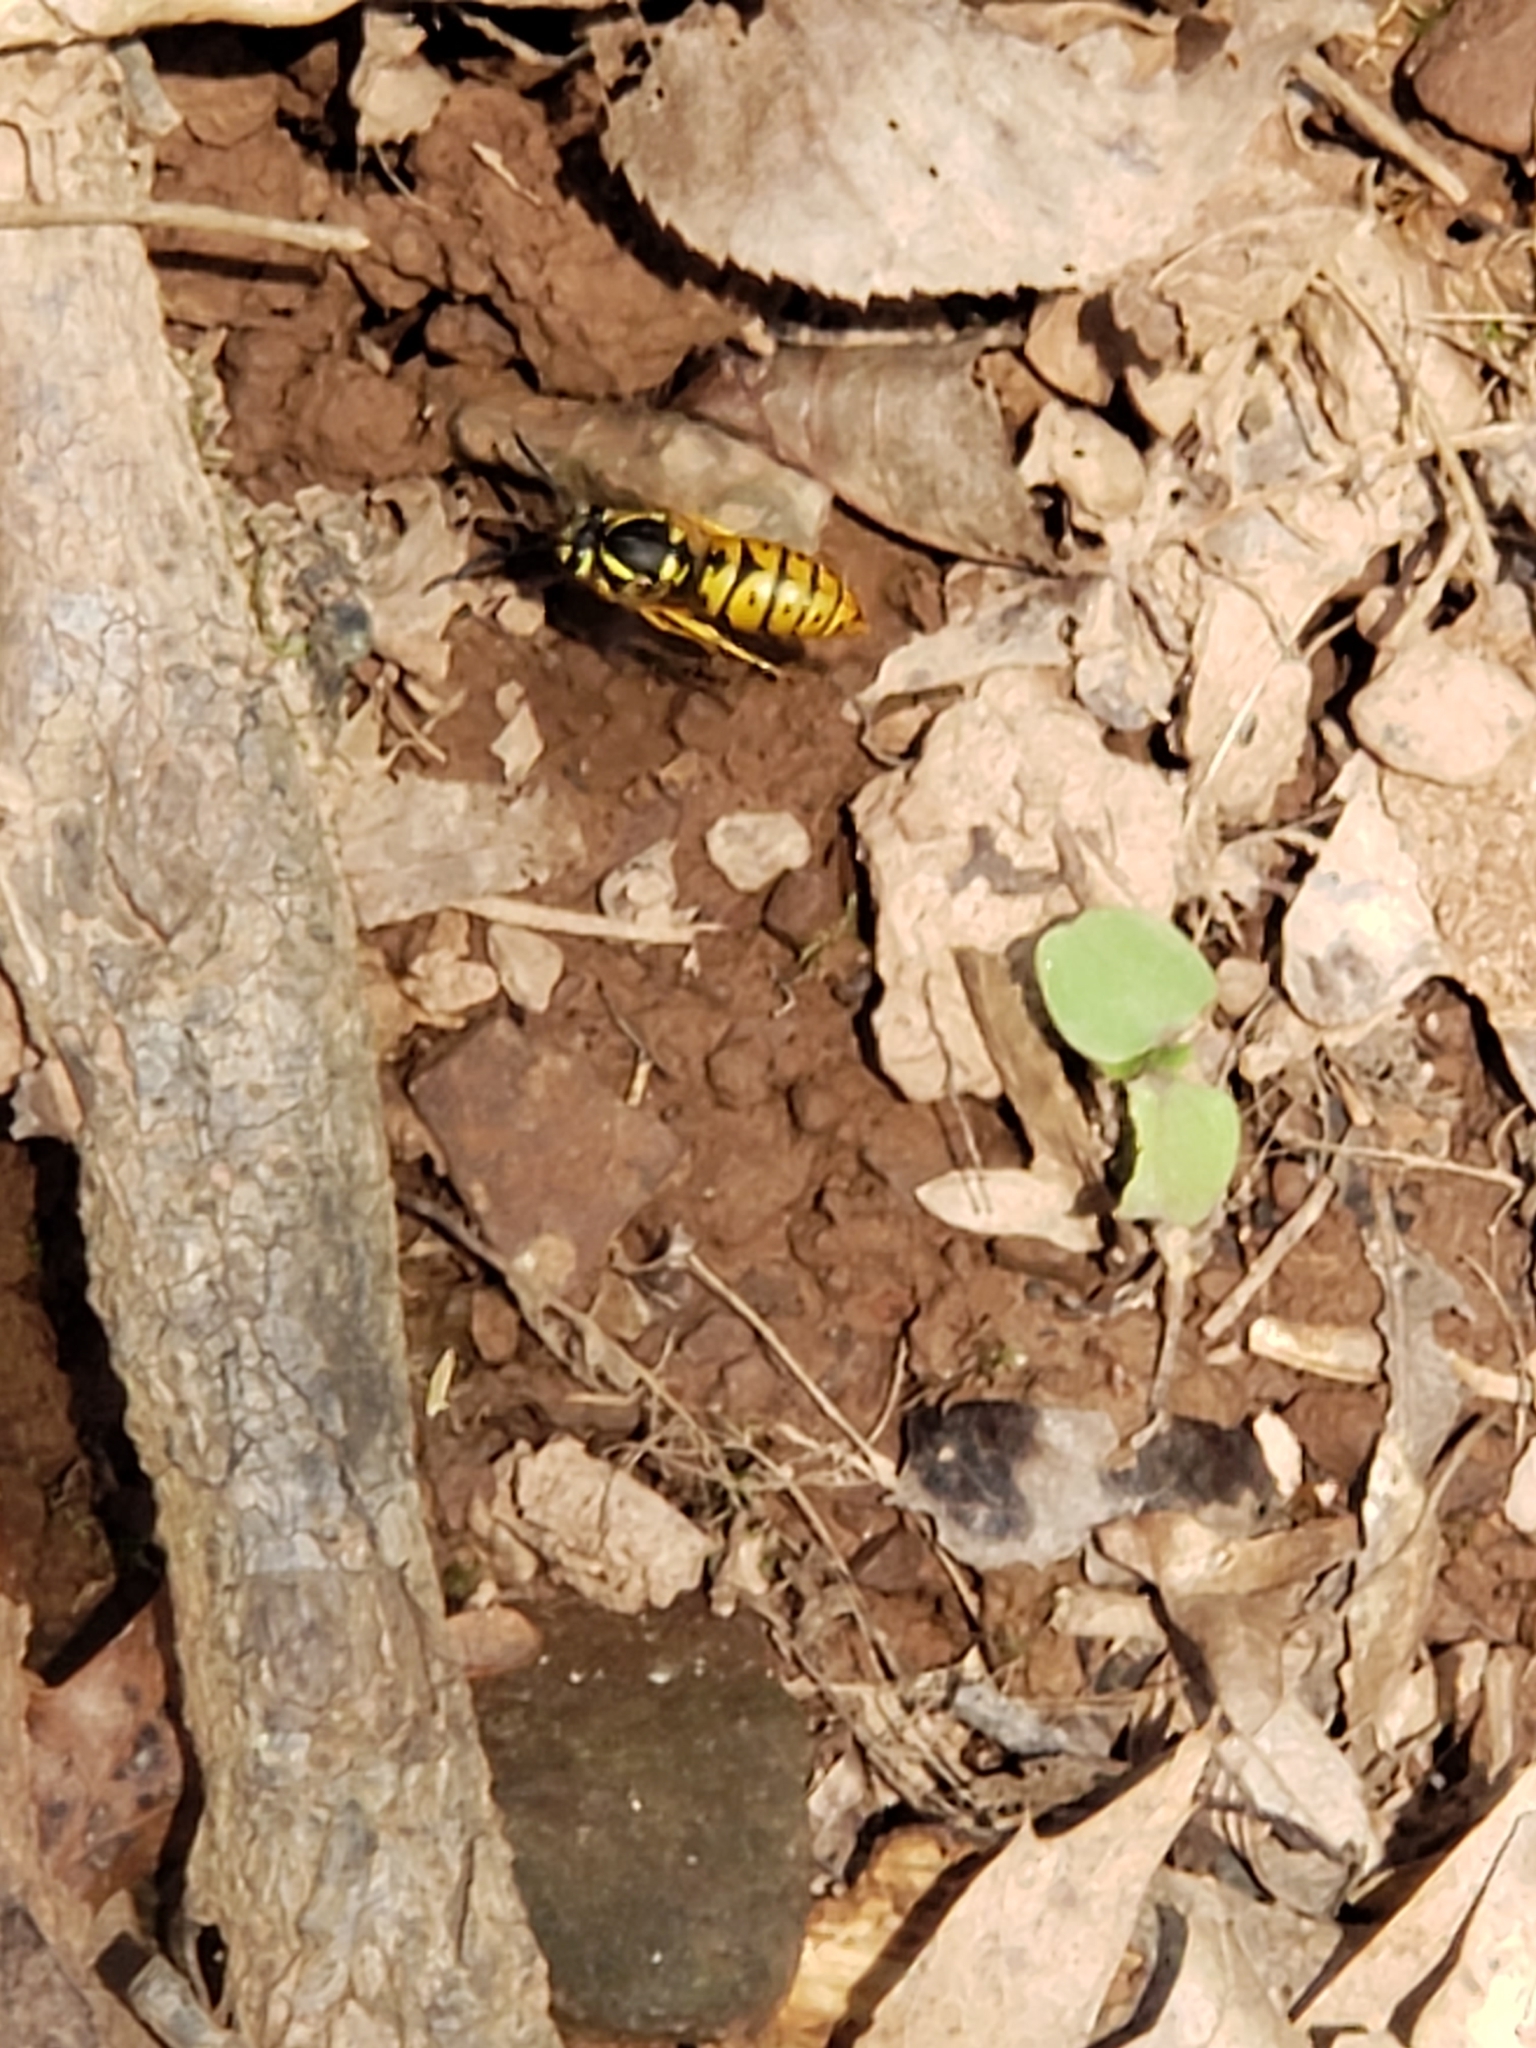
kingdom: Animalia
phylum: Arthropoda
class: Insecta
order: Hymenoptera
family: Vespidae
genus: Vespula
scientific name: Vespula maculifrons
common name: Eastern yellowjacket
